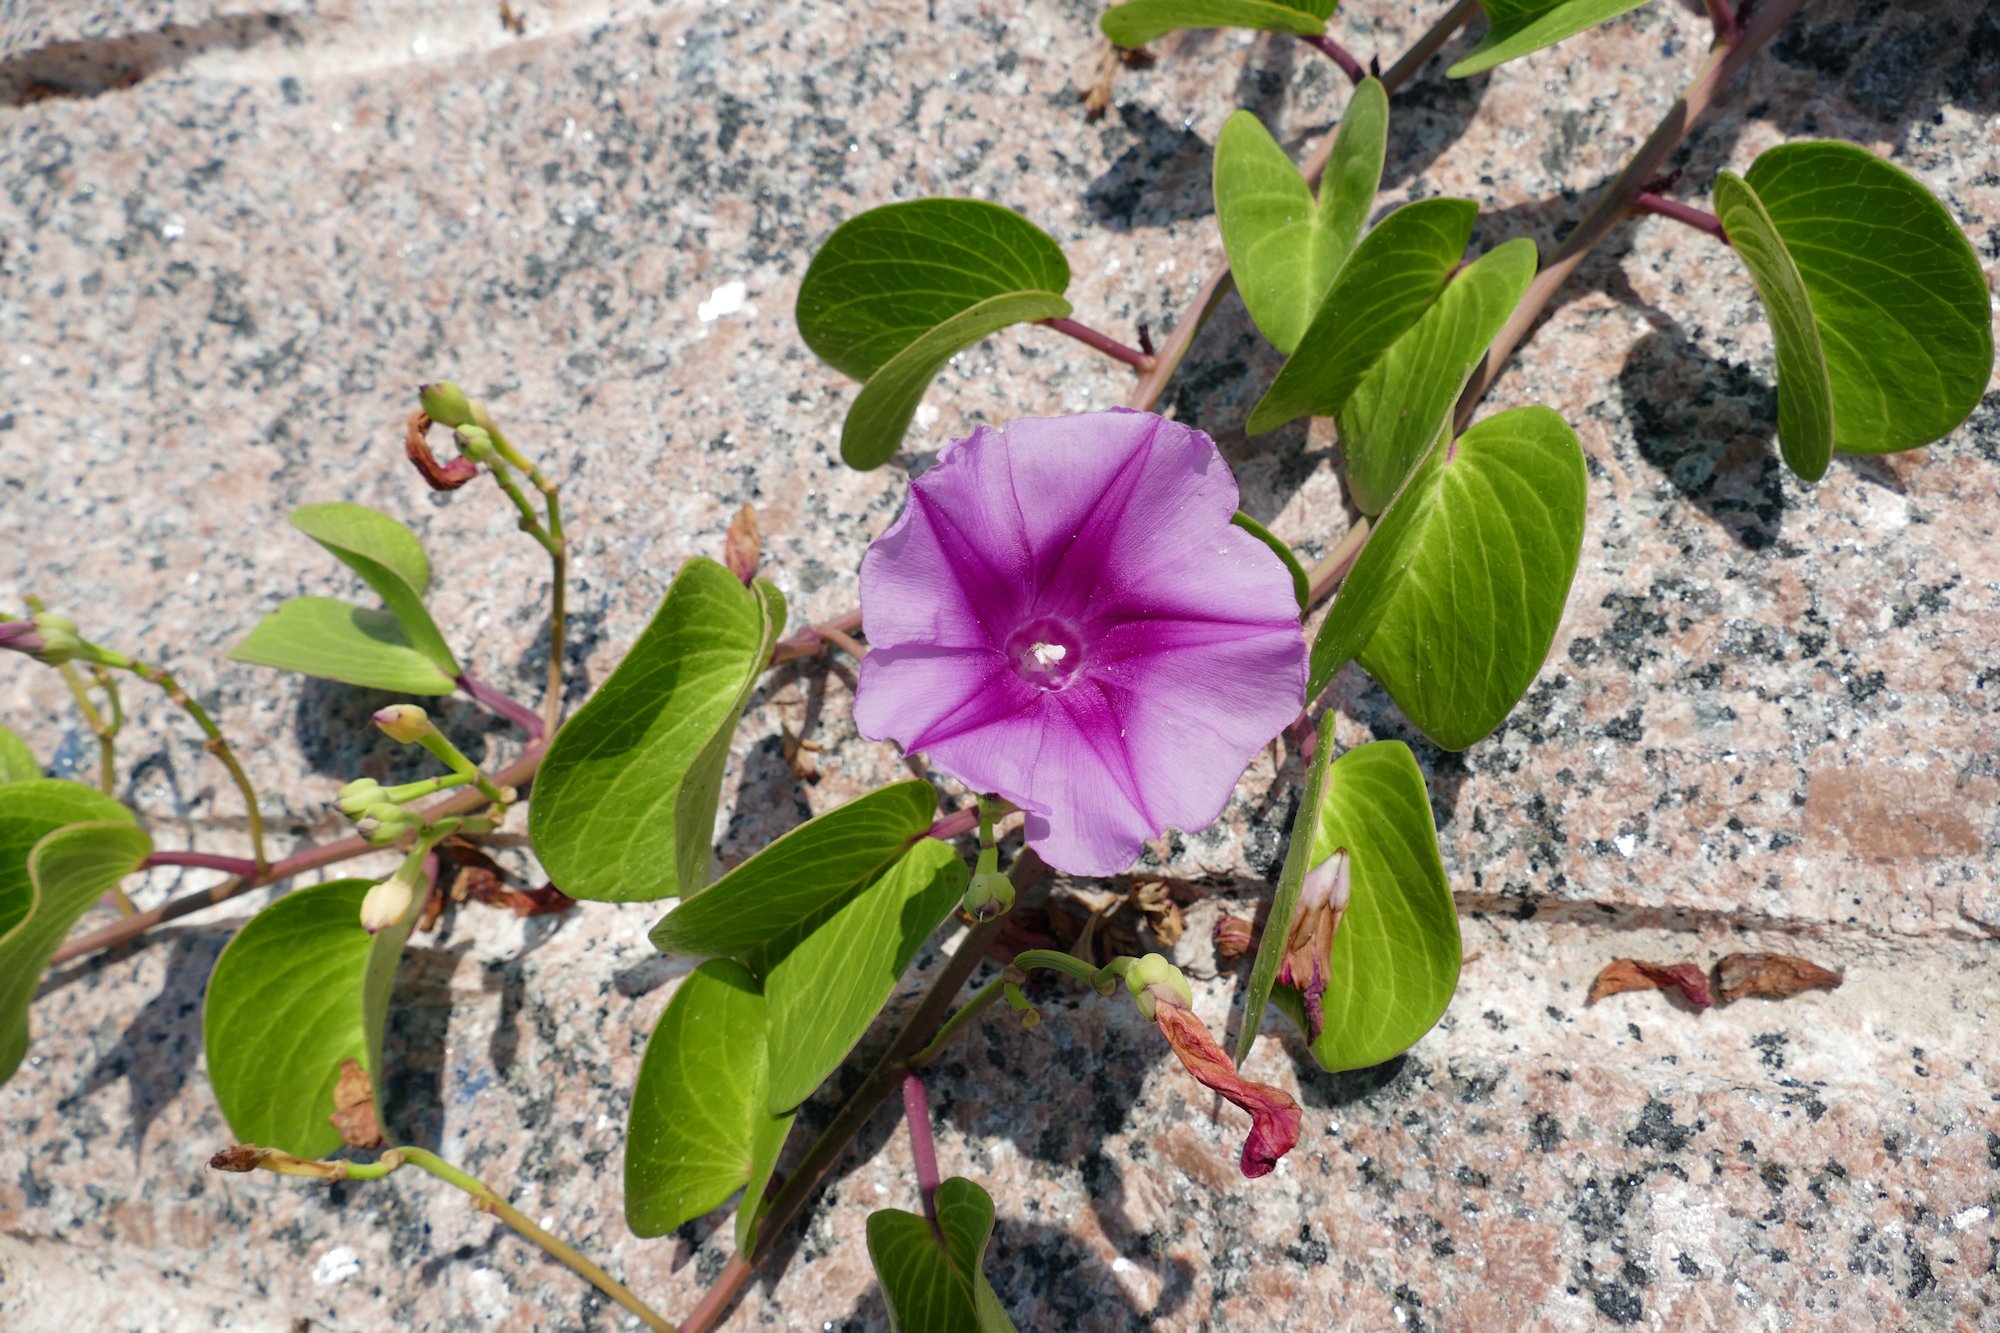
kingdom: Plantae
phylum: Tracheophyta
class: Magnoliopsida
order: Solanales
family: Convolvulaceae
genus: Ipomoea
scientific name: Ipomoea pes-caprae
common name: Beach morning glory
